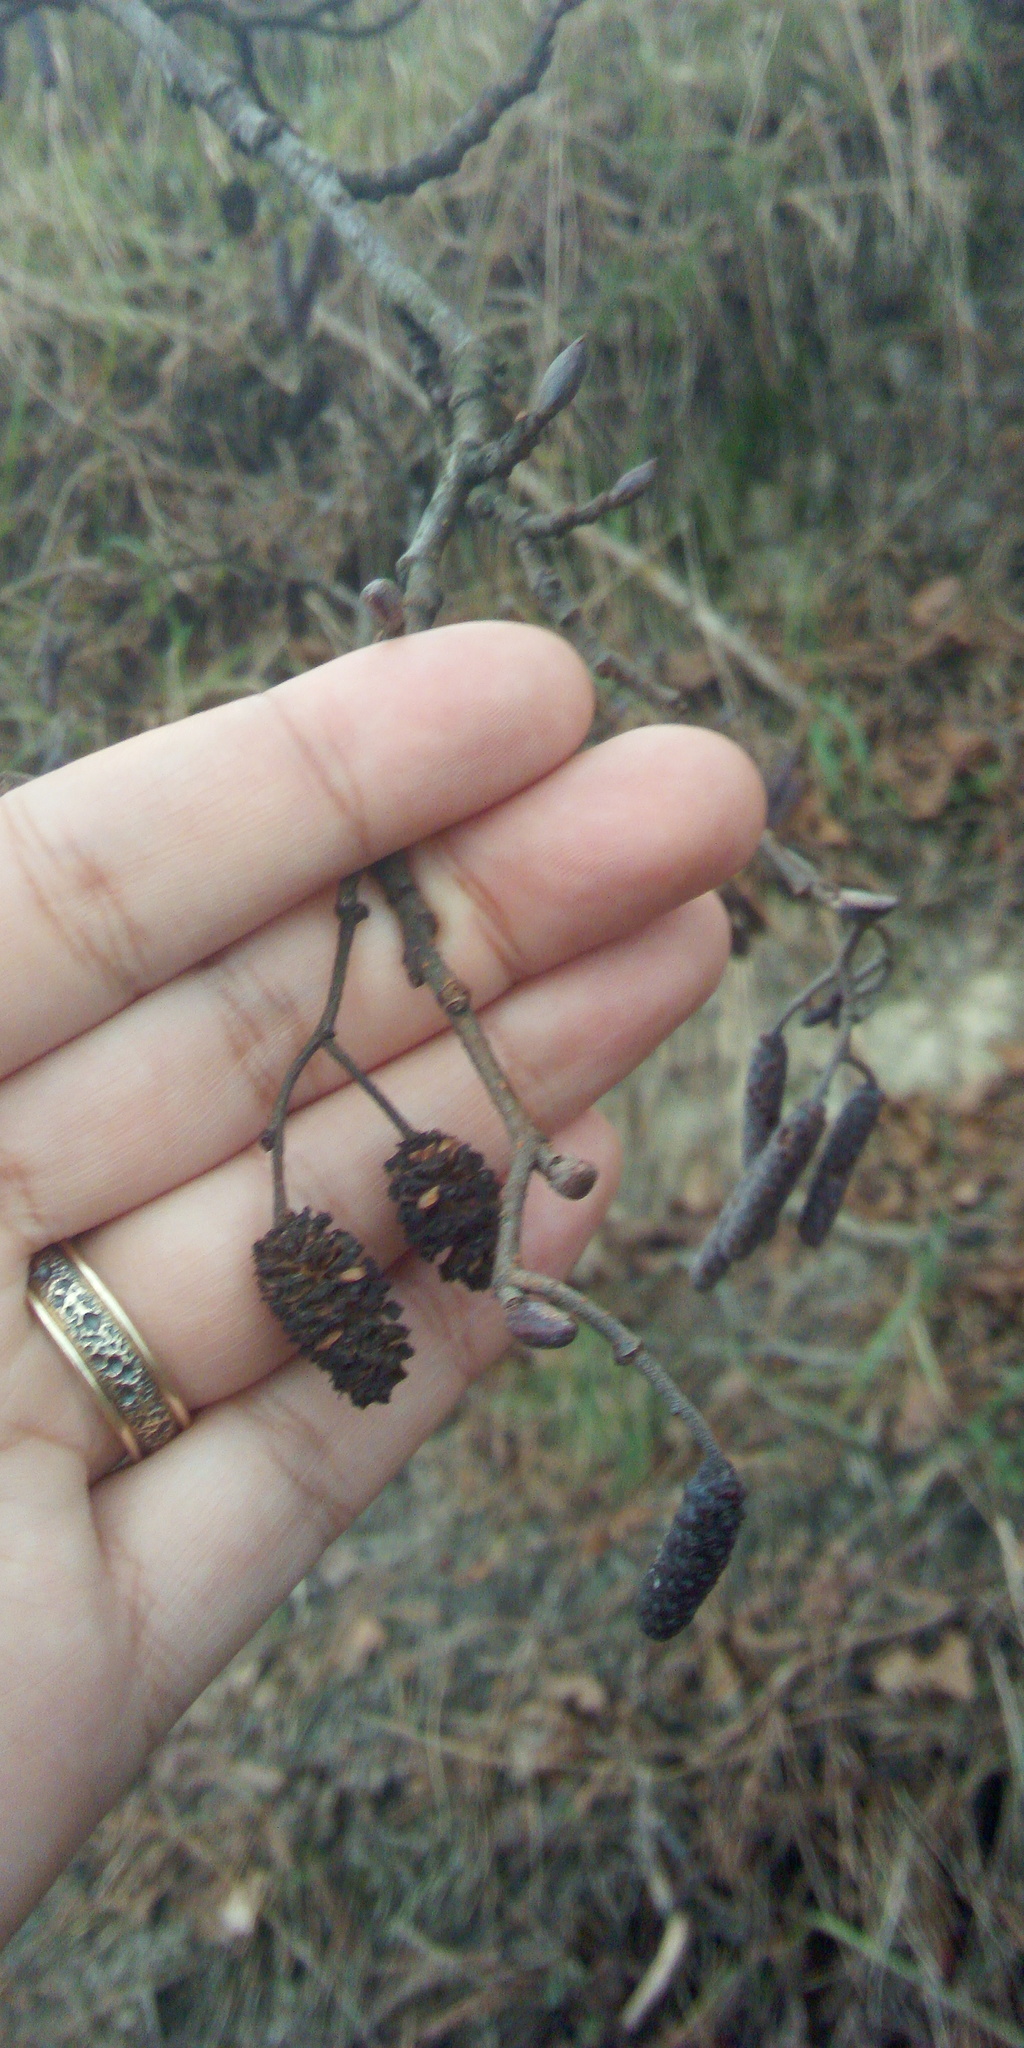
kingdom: Plantae
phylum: Tracheophyta
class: Magnoliopsida
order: Fagales
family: Betulaceae
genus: Alnus
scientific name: Alnus glutinosa
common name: Black alder
